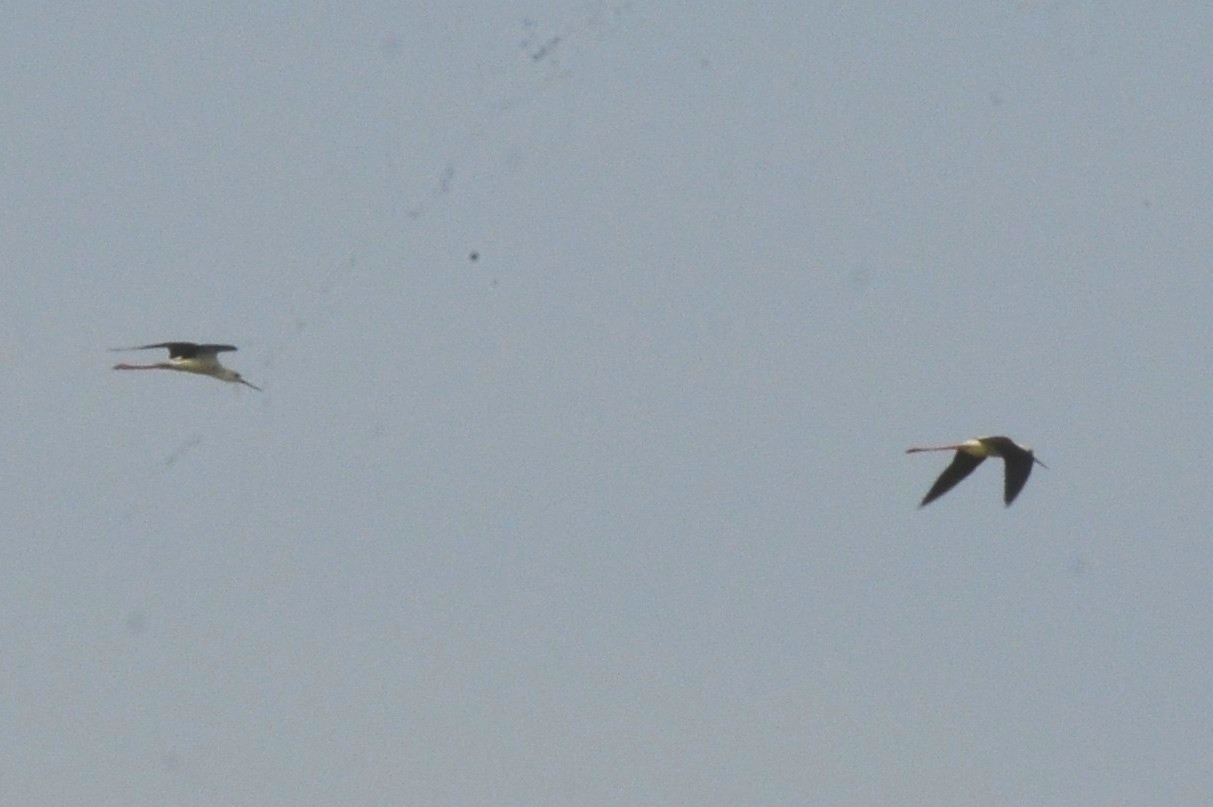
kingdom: Animalia
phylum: Chordata
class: Aves
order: Charadriiformes
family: Recurvirostridae
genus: Himantopus
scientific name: Himantopus himantopus
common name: Black-winged stilt
